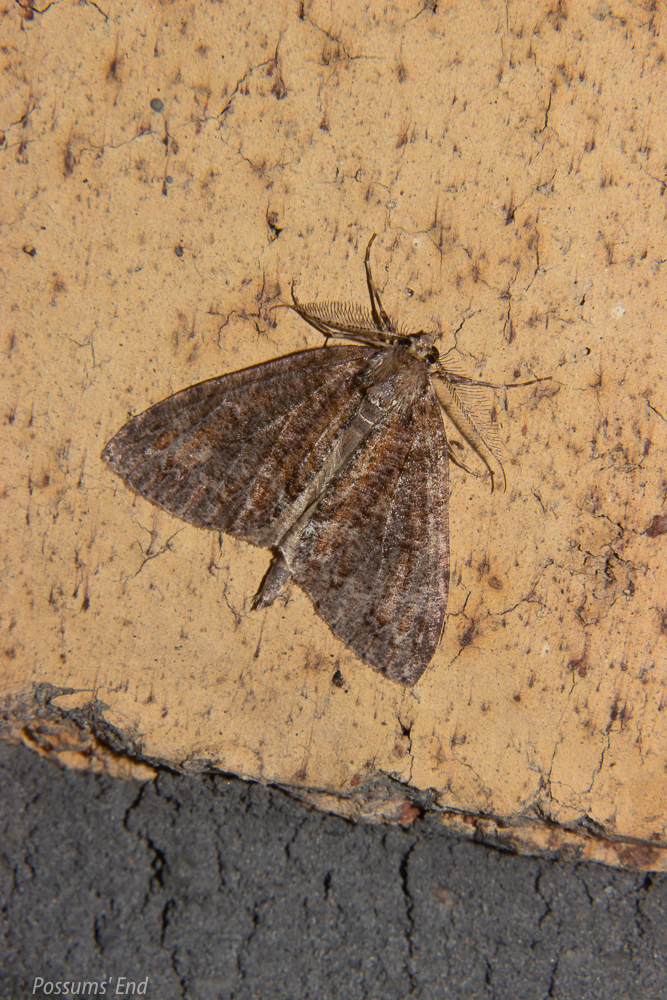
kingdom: Animalia
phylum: Arthropoda
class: Insecta
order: Lepidoptera
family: Geometridae
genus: Pseudocoremia
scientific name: Pseudocoremia suavis
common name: Common forest looper
